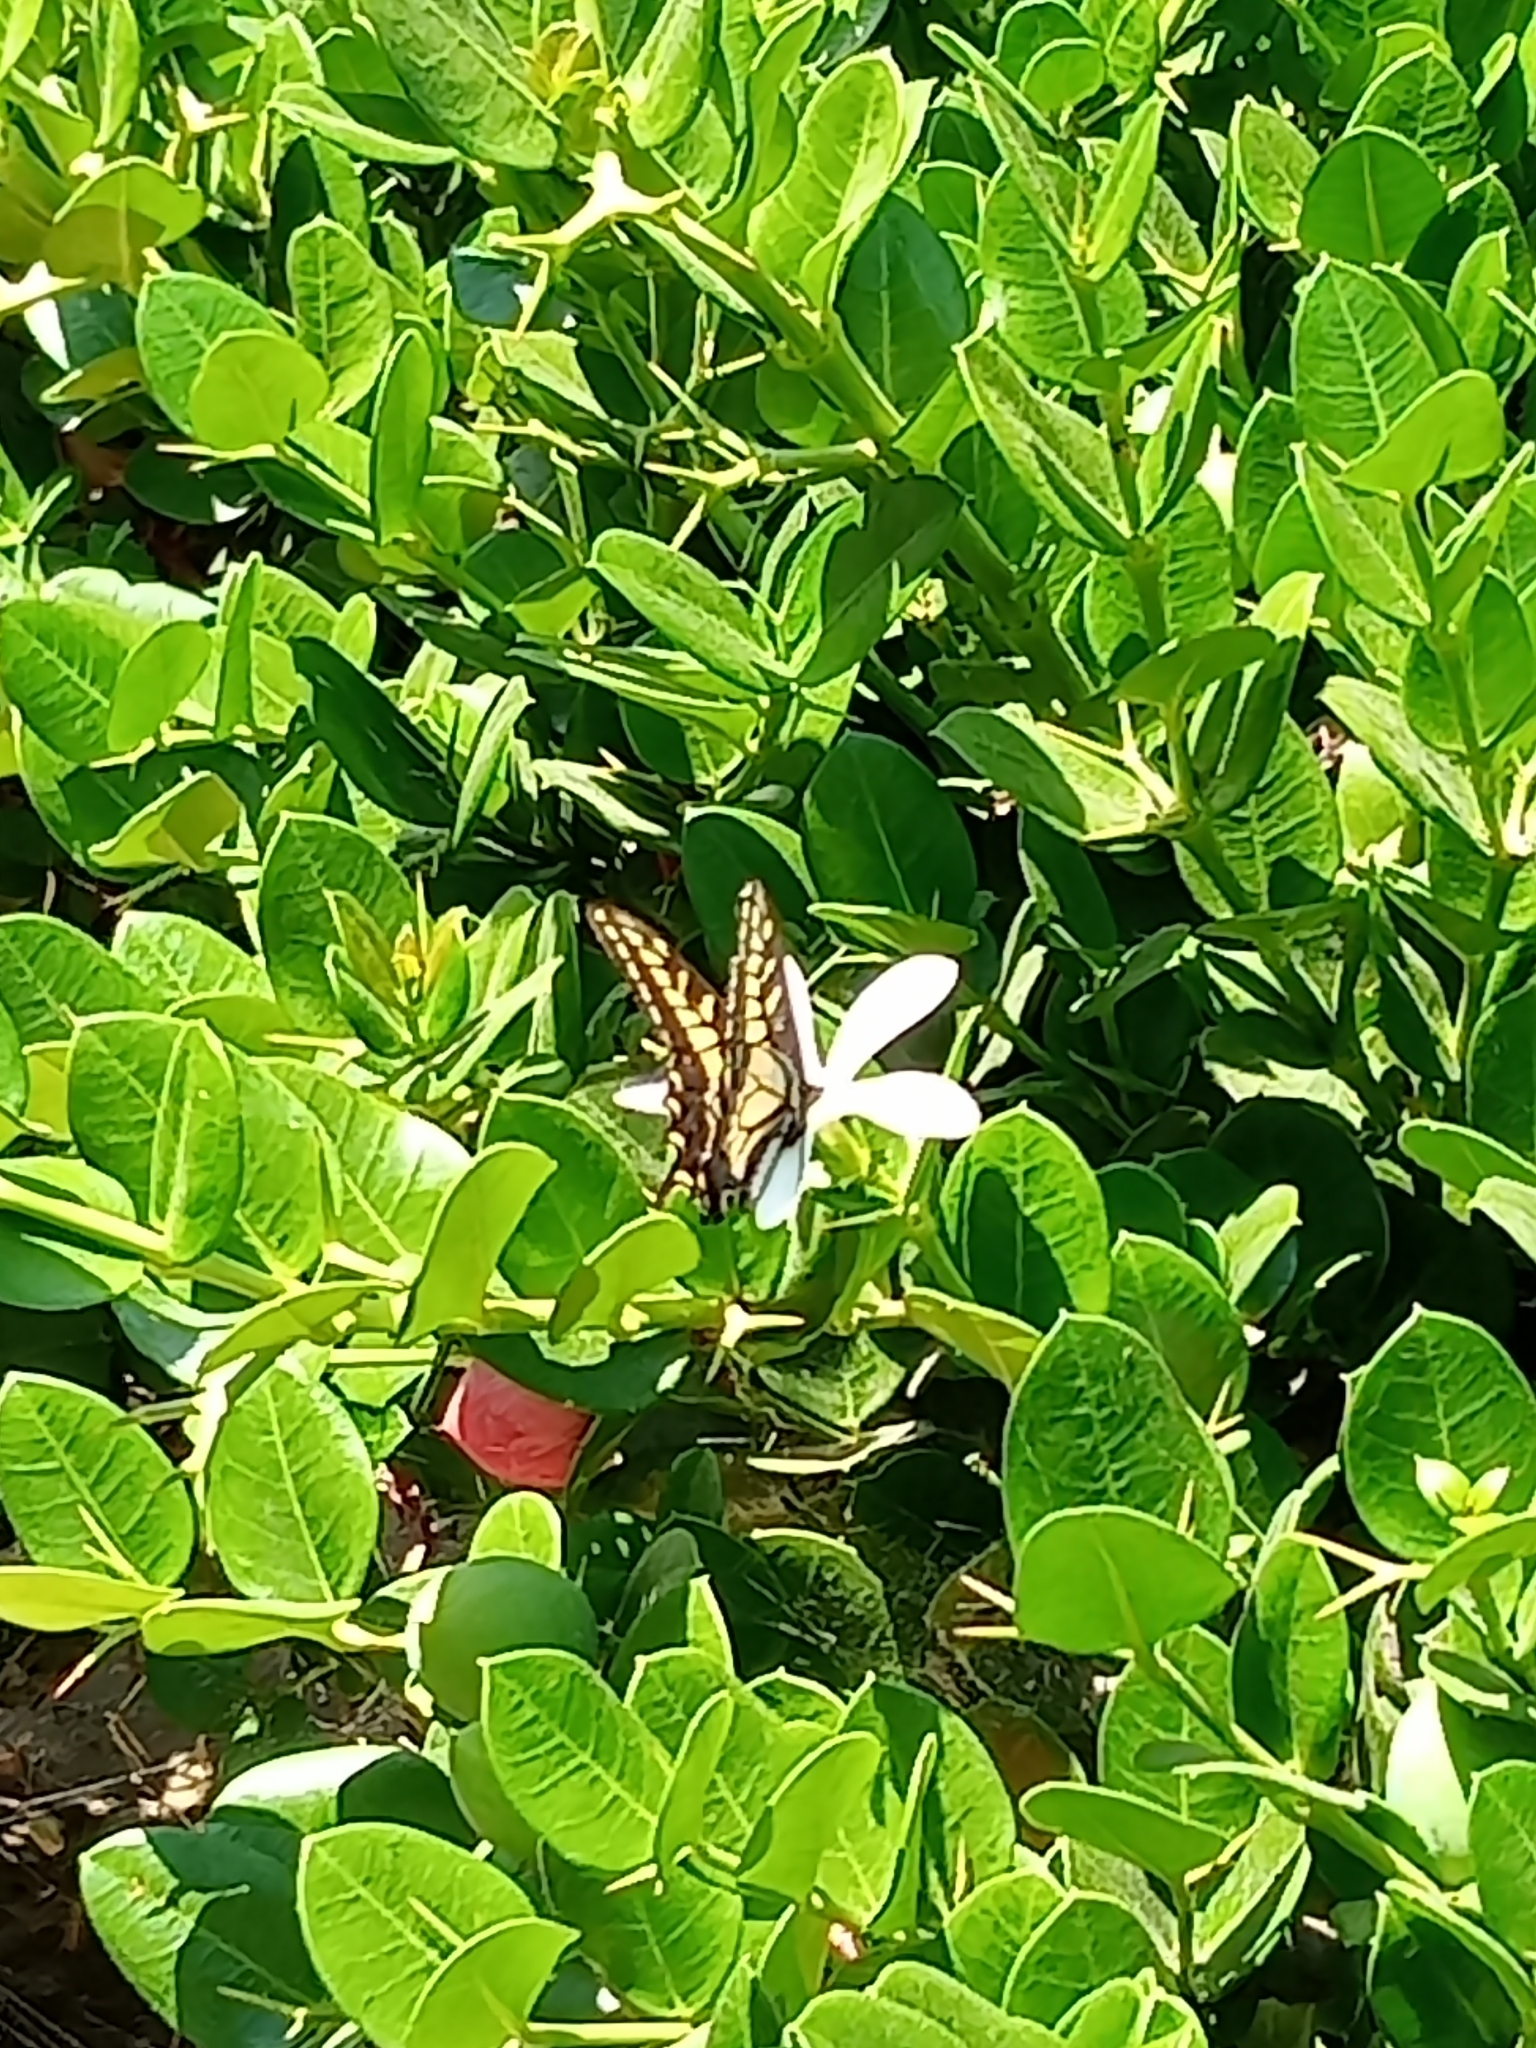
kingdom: Animalia
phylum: Arthropoda
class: Insecta
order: Lepidoptera
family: Papilionidae
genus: Papilio
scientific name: Papilio zelicaon
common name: Anise swallowtail
